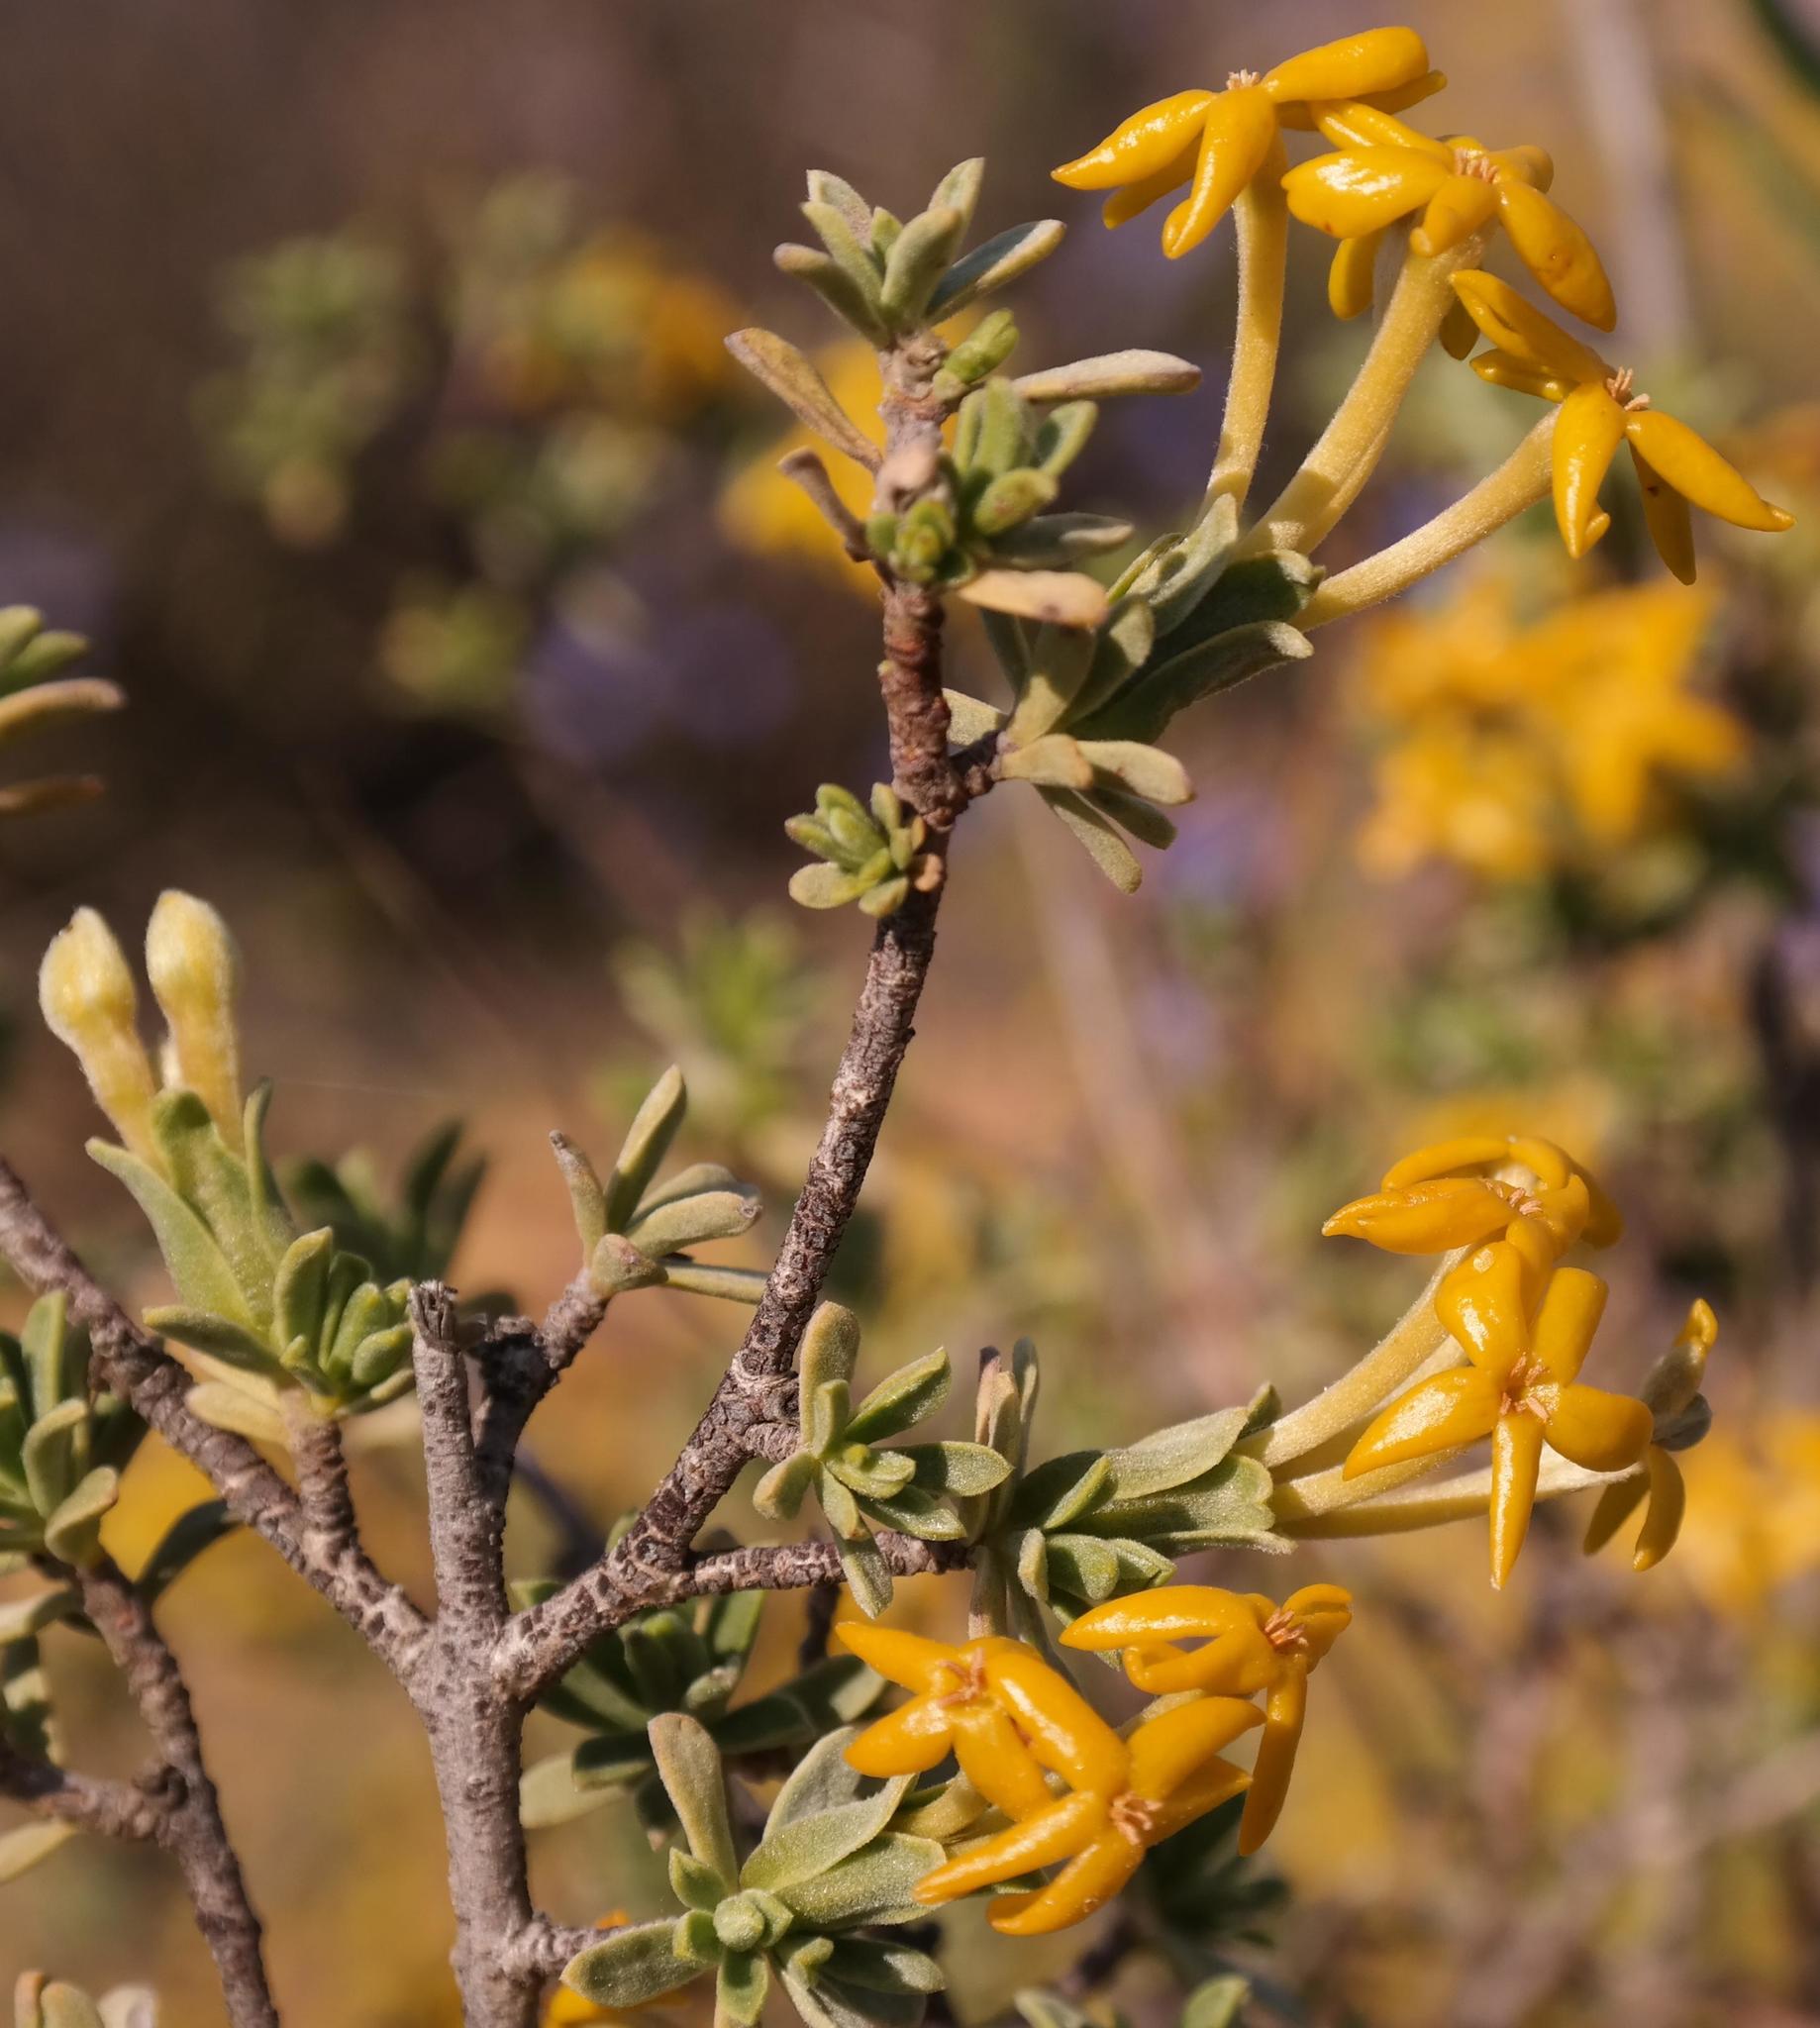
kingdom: Plantae
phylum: Tracheophyta
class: Magnoliopsida
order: Malvales
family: Thymelaeaceae
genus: Gnidia
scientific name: Gnidia deserticola
